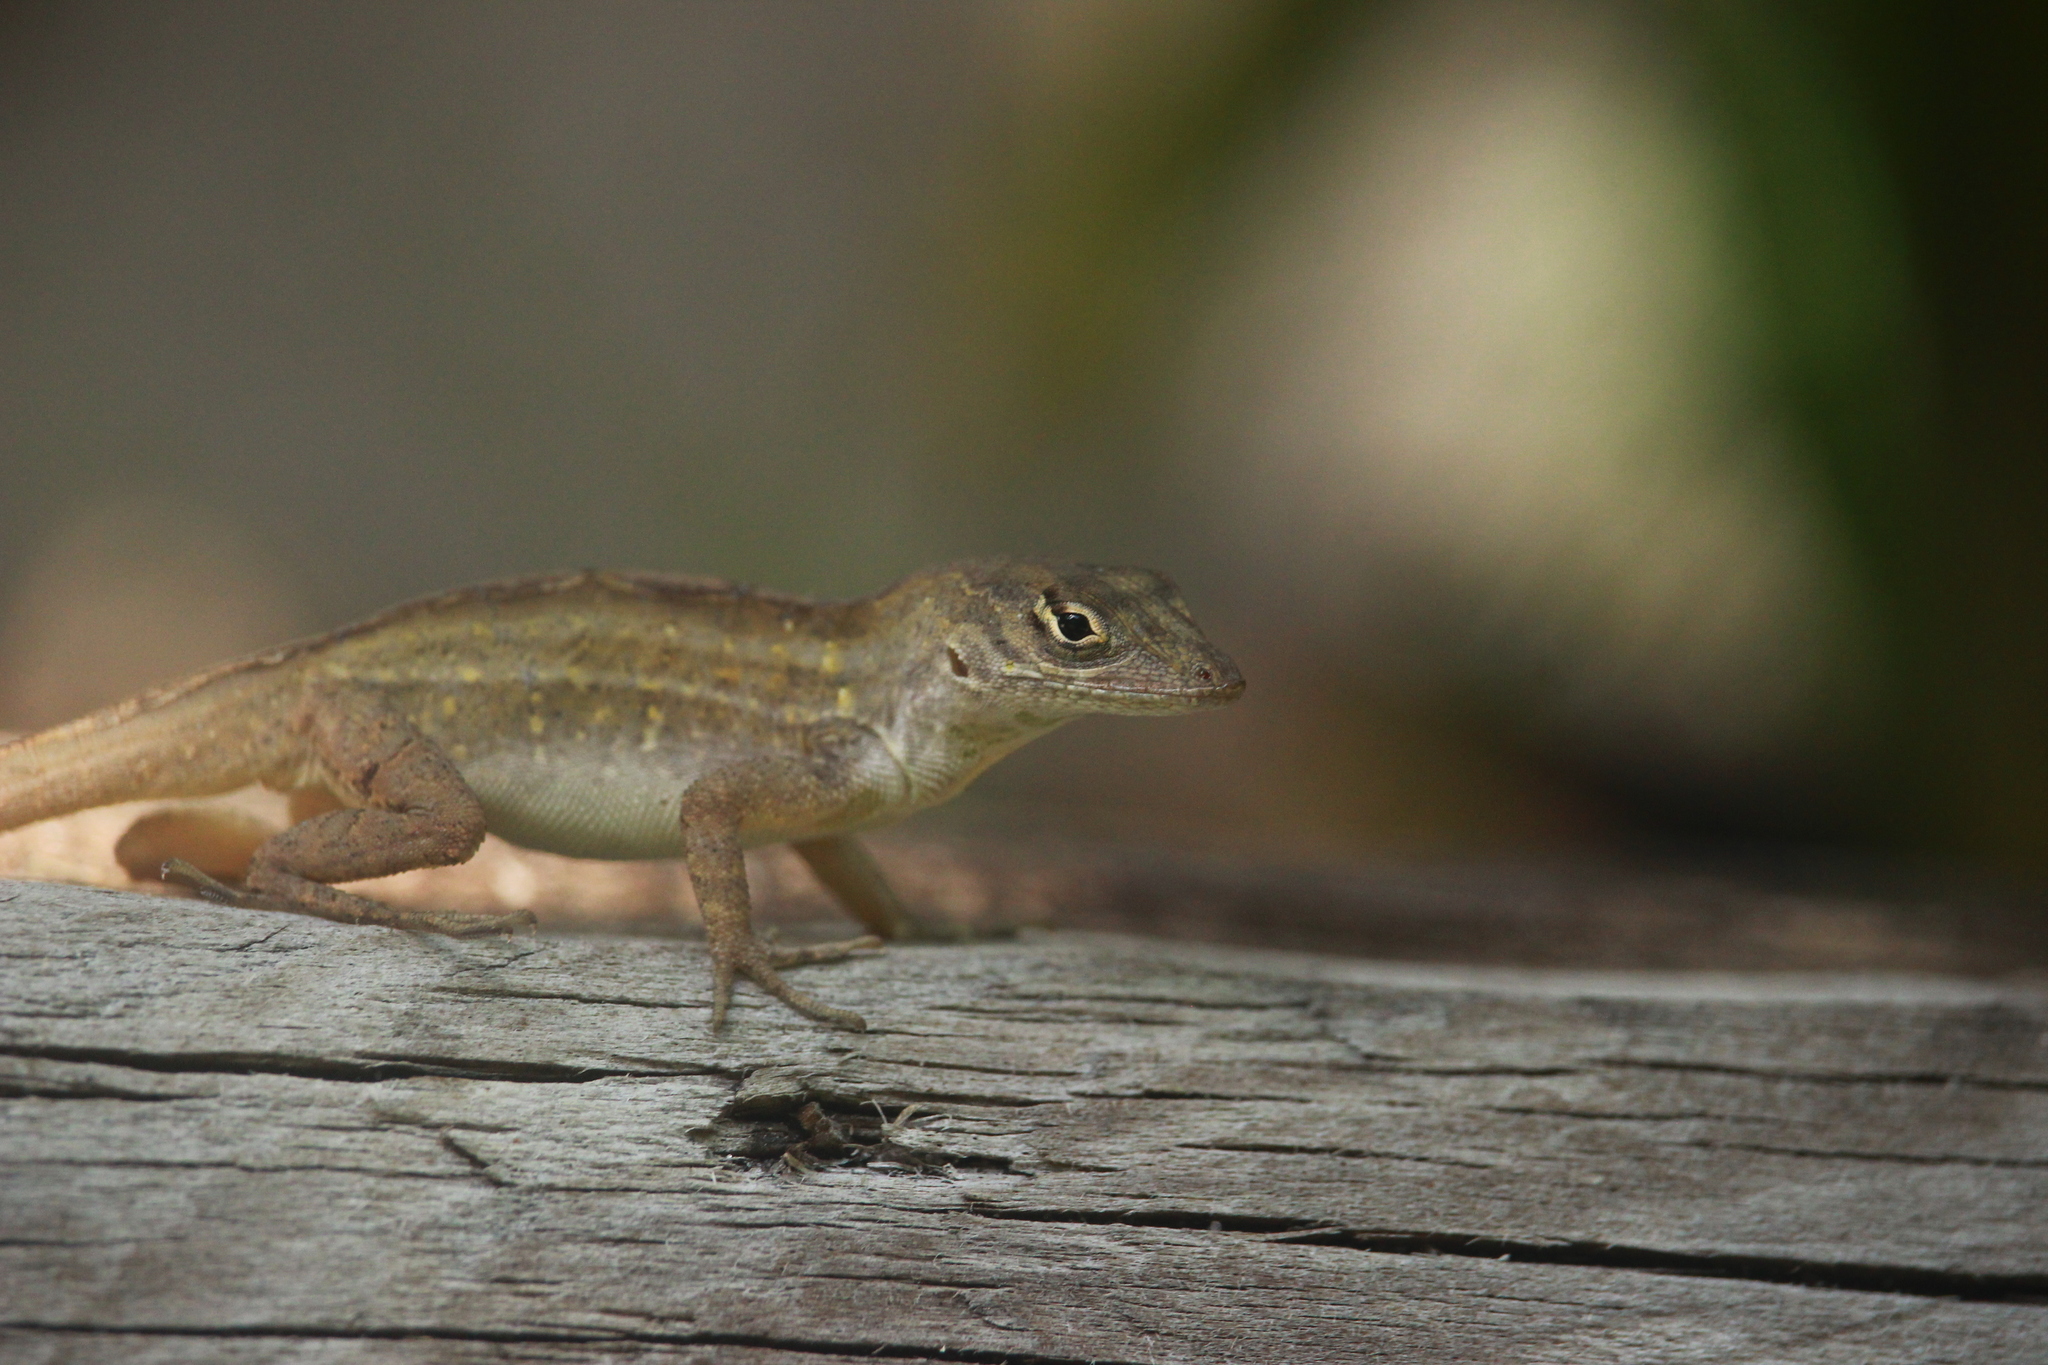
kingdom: Animalia
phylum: Chordata
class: Squamata
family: Dactyloidae
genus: Anolis
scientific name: Anolis sagrei
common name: Brown anole
